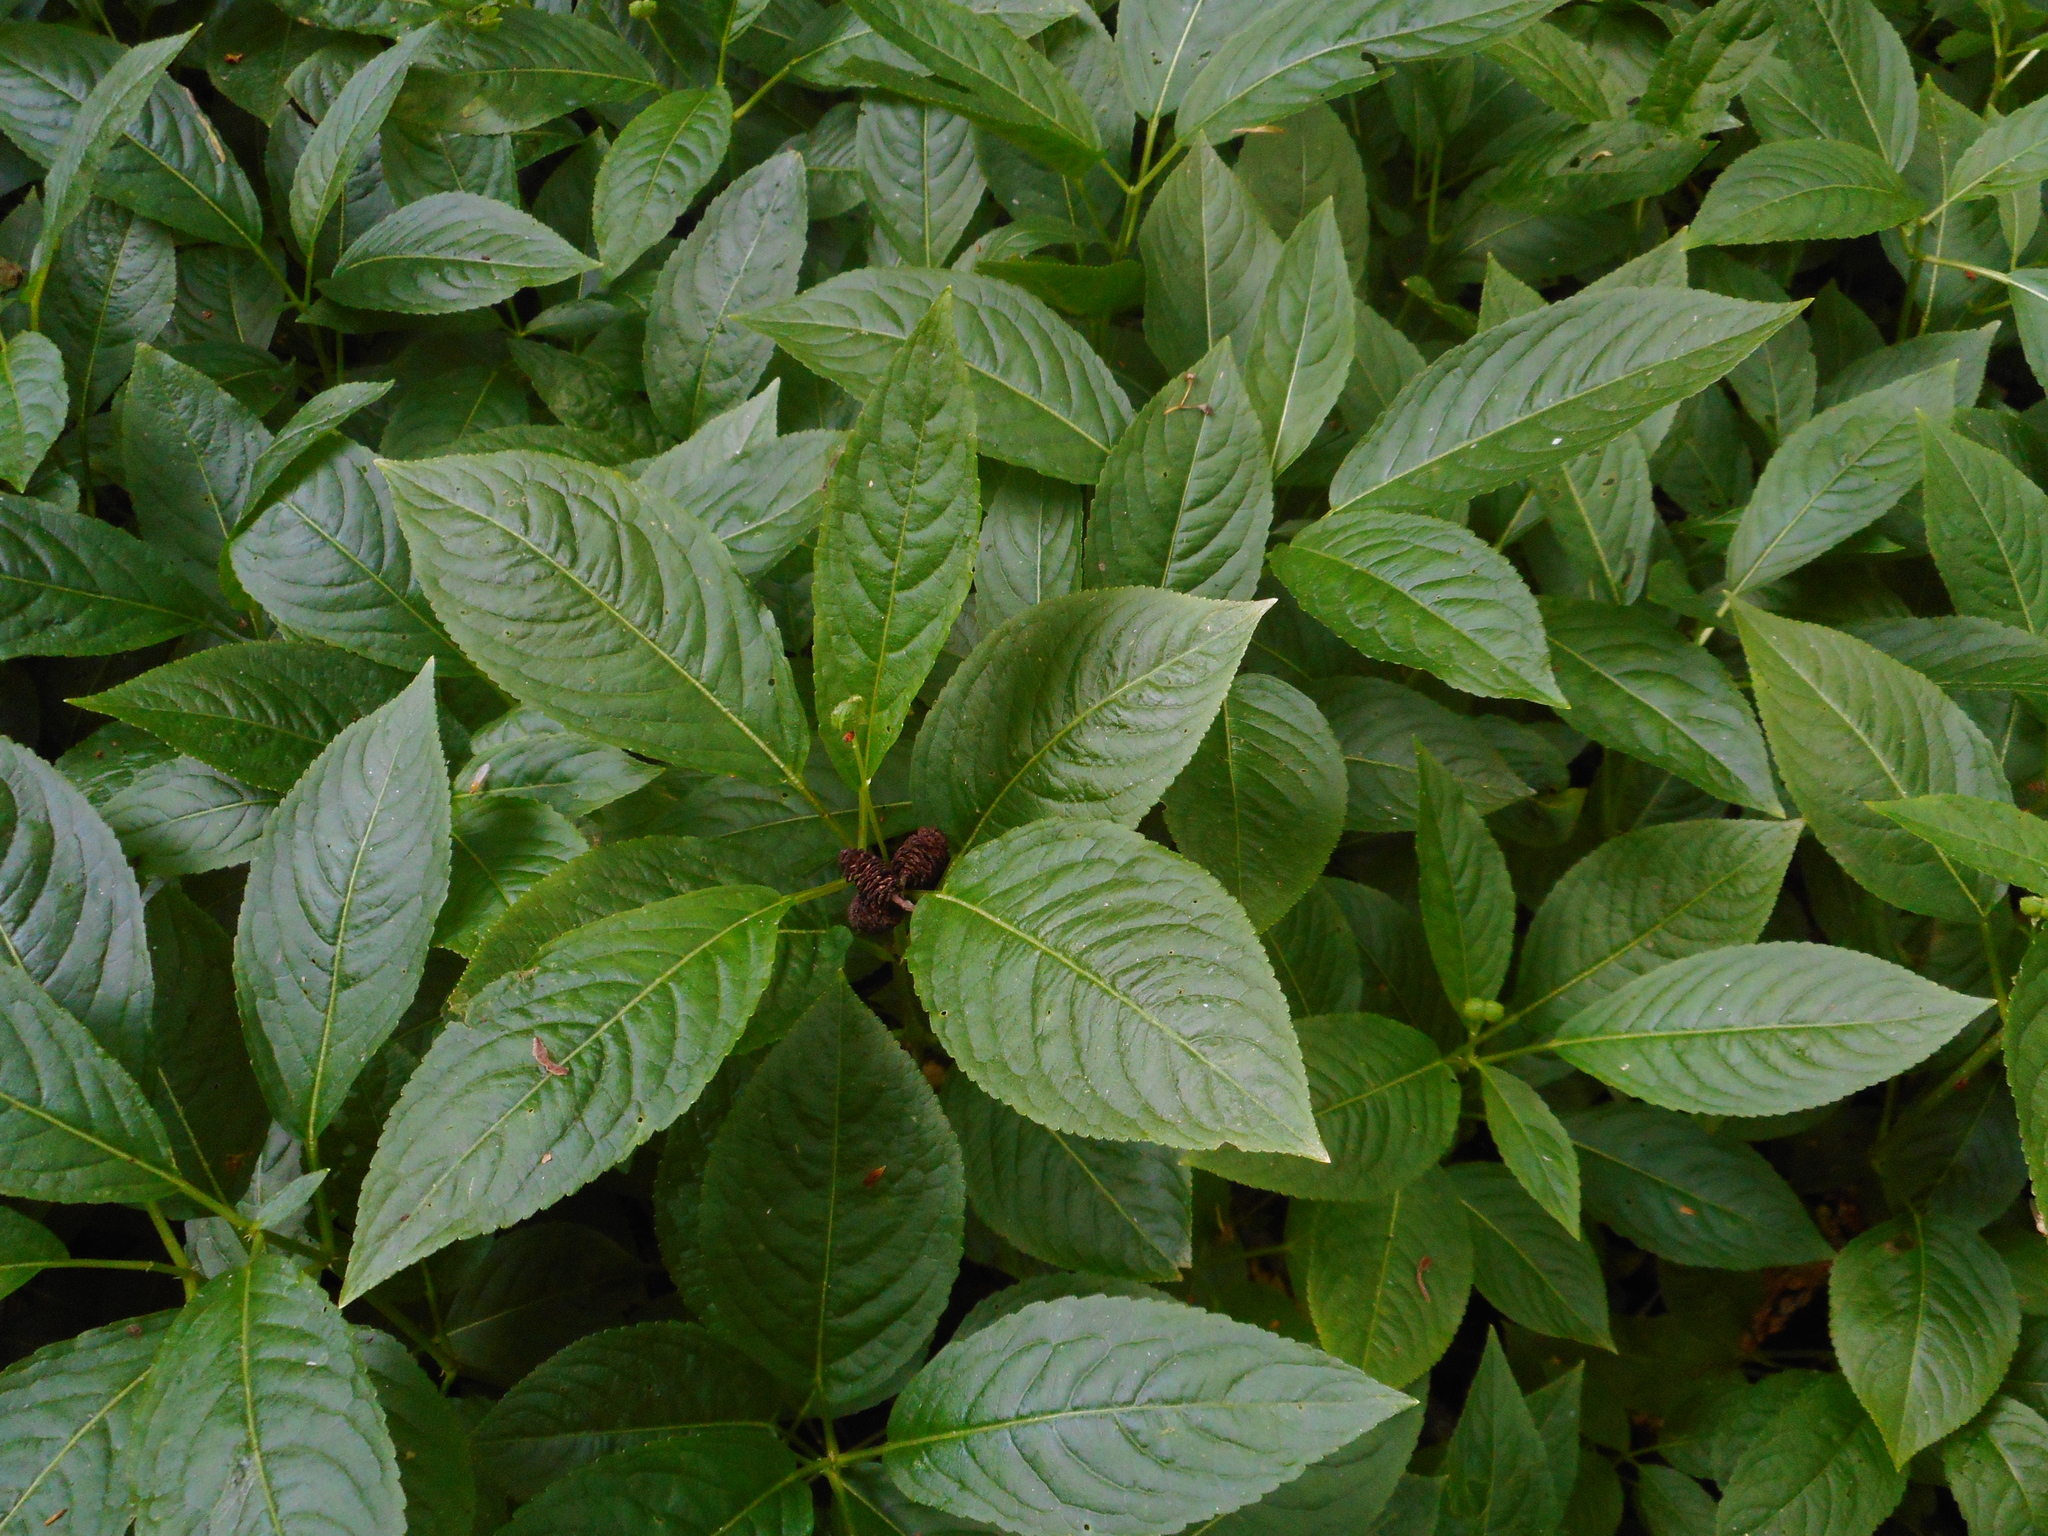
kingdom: Plantae
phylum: Tracheophyta
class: Magnoliopsida
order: Malpighiales
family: Euphorbiaceae
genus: Mercurialis
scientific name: Mercurialis perennis
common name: Dog mercury
